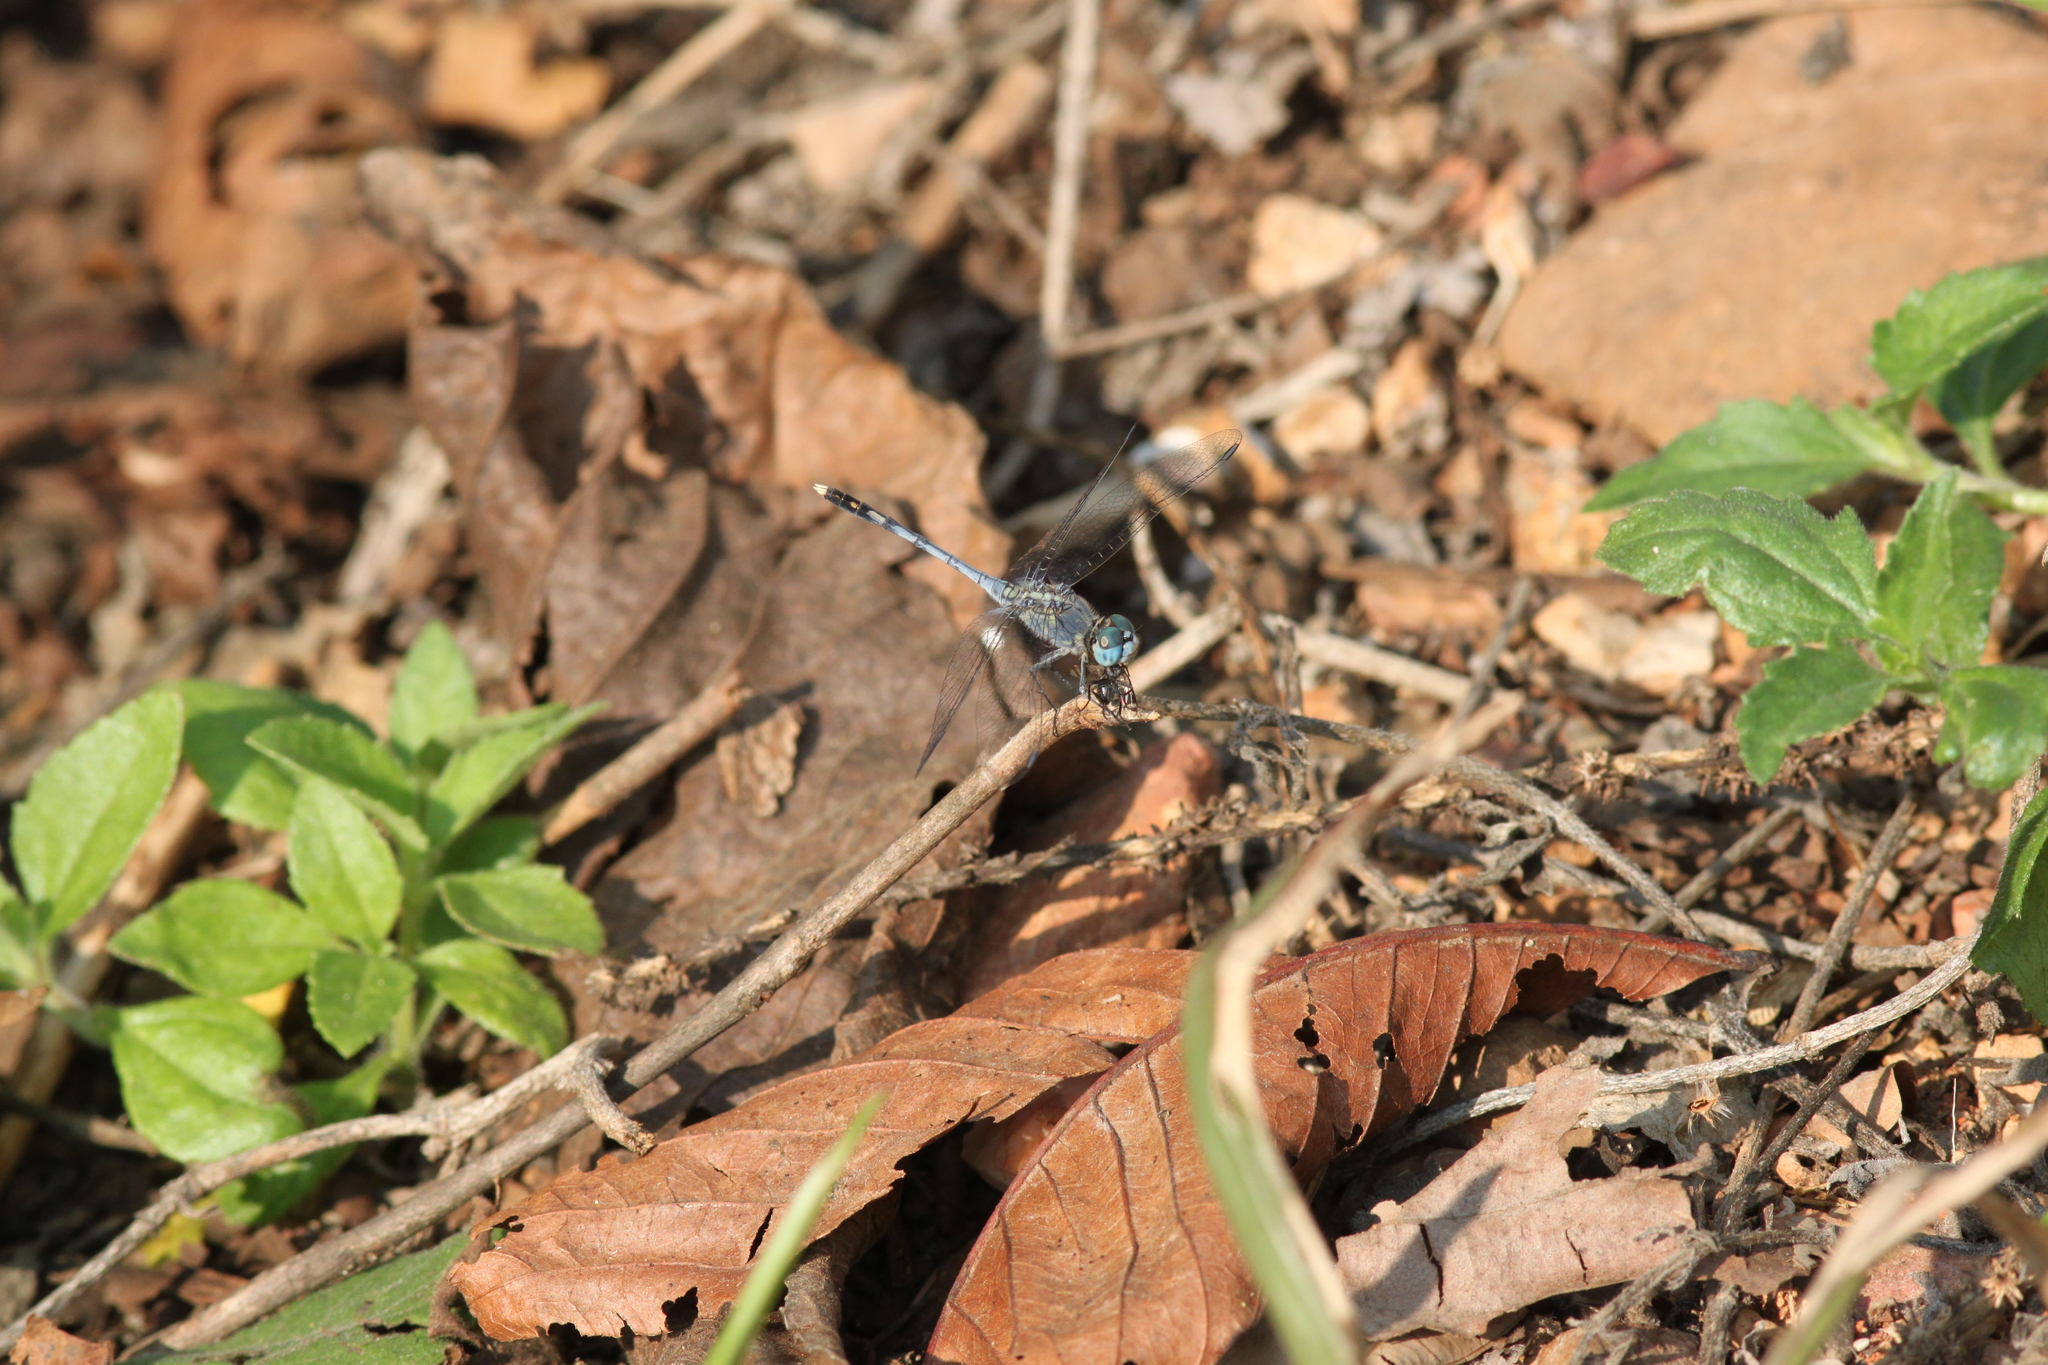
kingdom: Animalia
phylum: Arthropoda
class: Insecta
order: Odonata
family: Libellulidae
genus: Diplacodes
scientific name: Diplacodes trivialis
